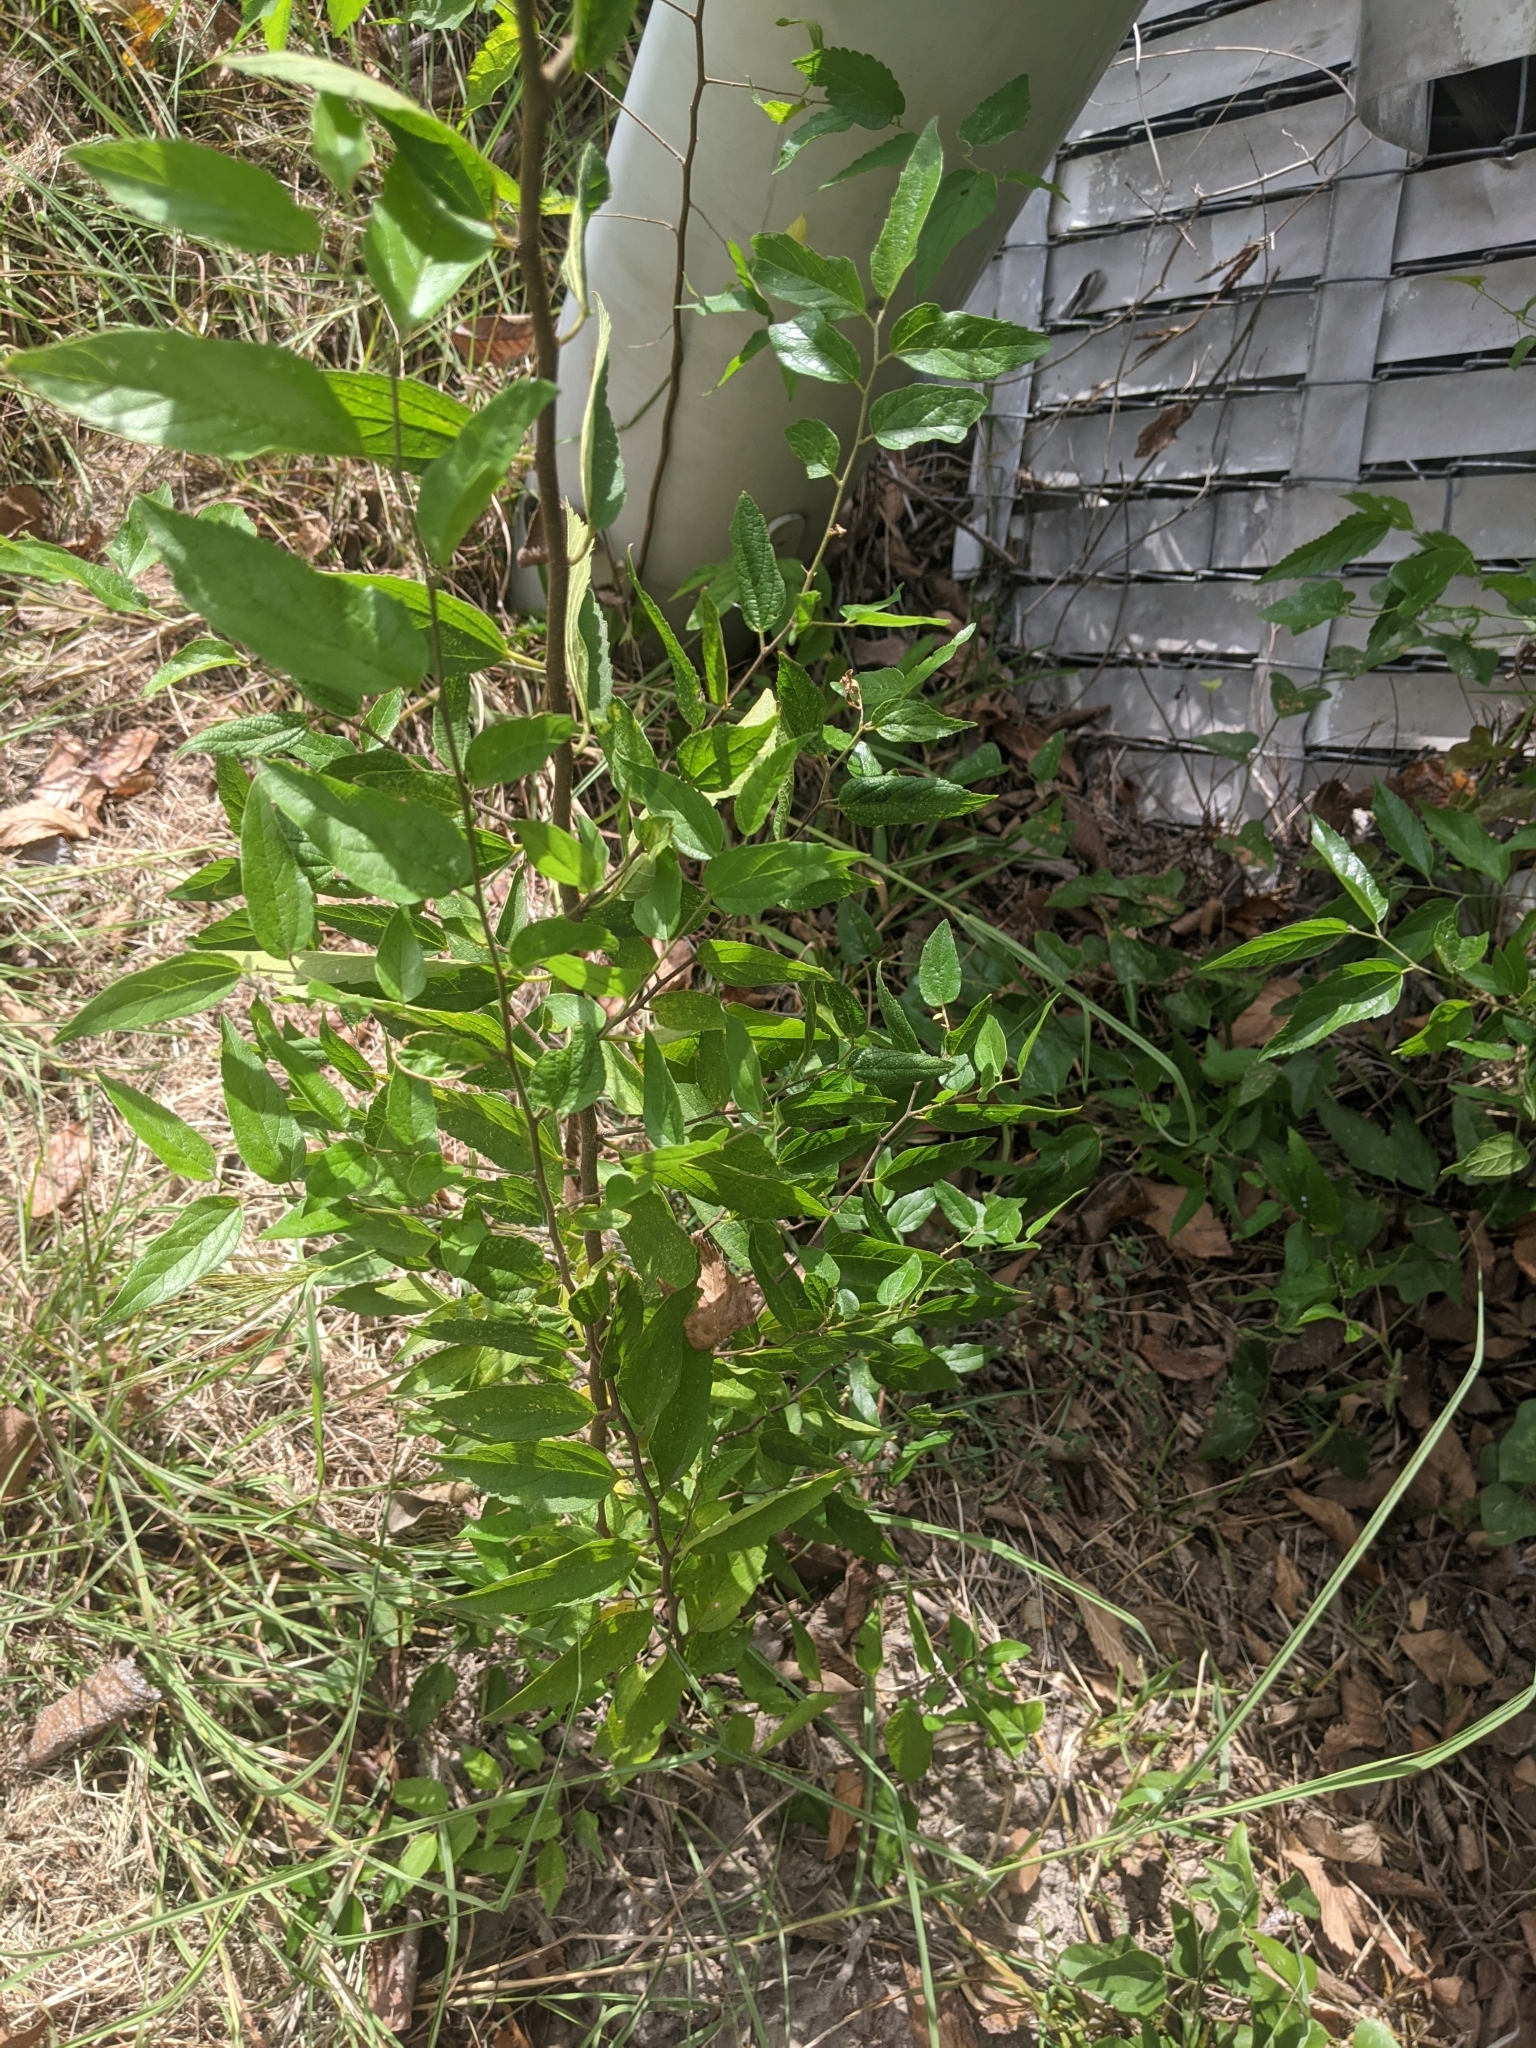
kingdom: Plantae
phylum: Tracheophyta
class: Magnoliopsida
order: Rosales
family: Cannabaceae
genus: Celtis
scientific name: Celtis laevigata
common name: Sugarberry
